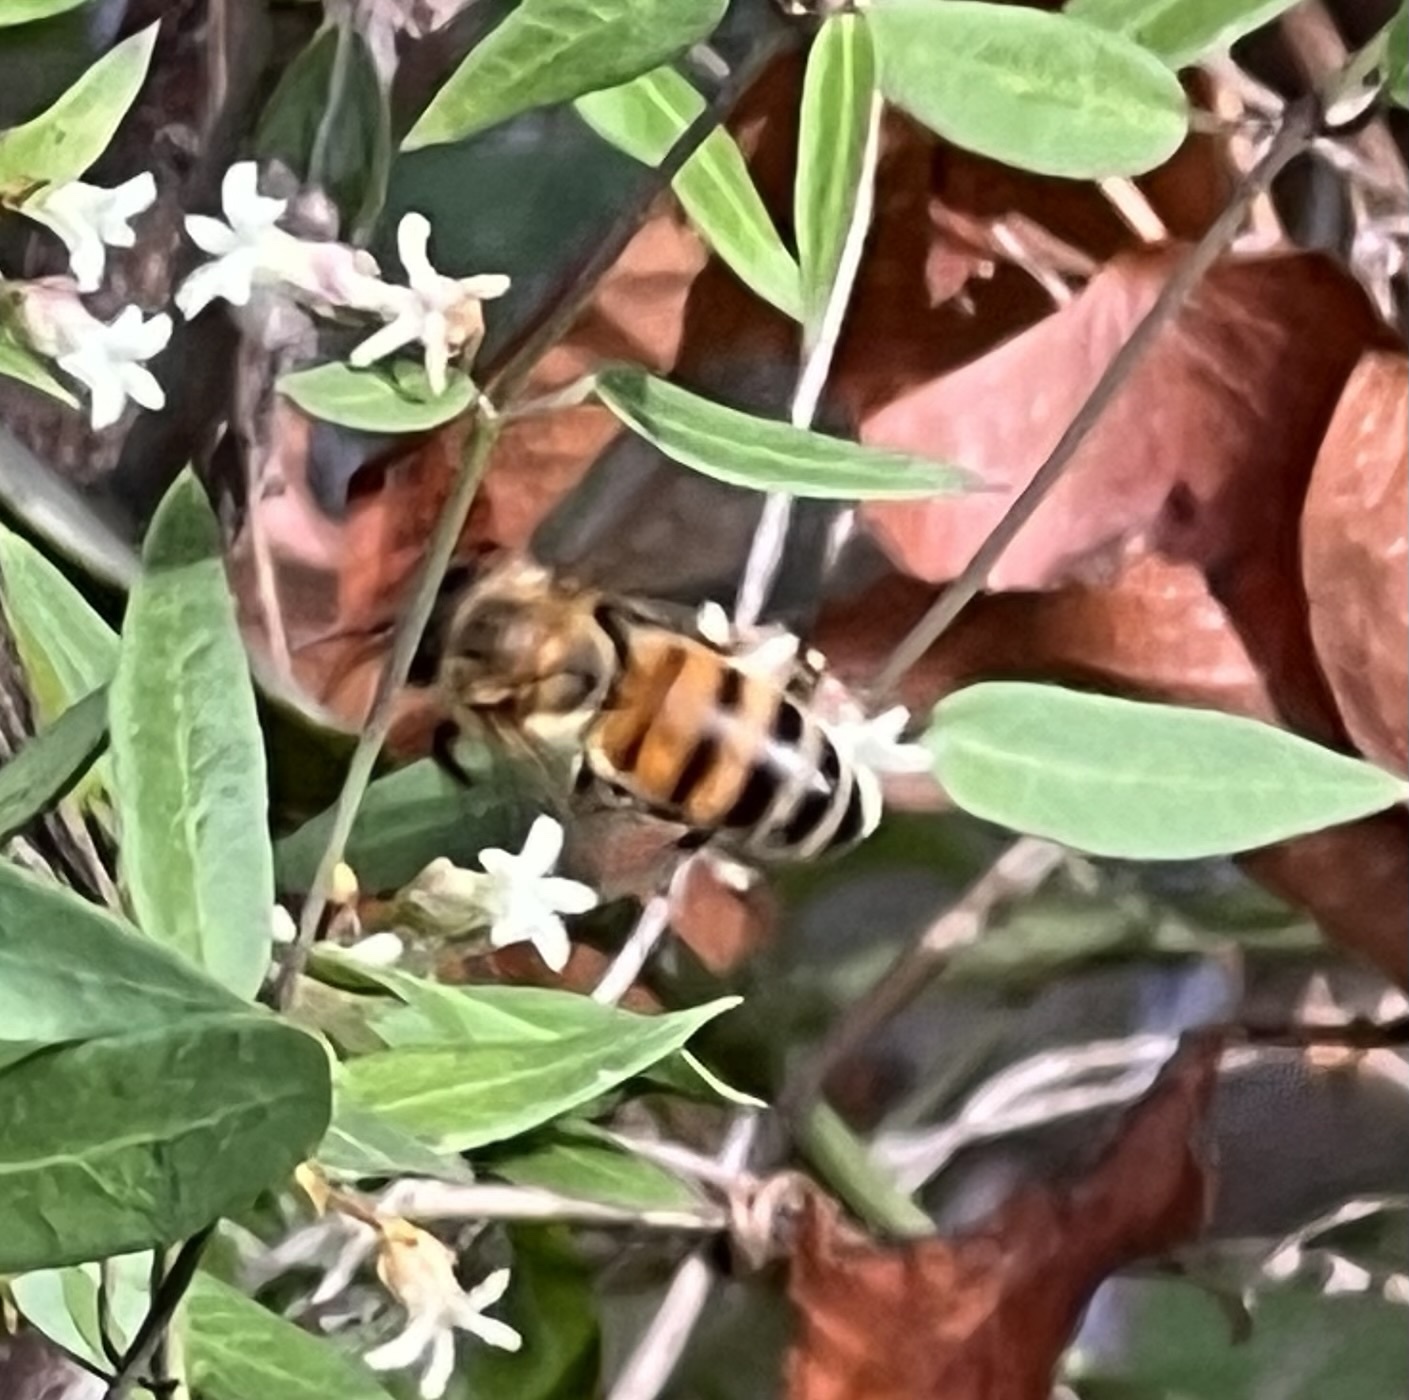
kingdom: Animalia
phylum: Arthropoda
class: Insecta
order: Hymenoptera
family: Apidae
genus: Apis
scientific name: Apis mellifera
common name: Honey bee
